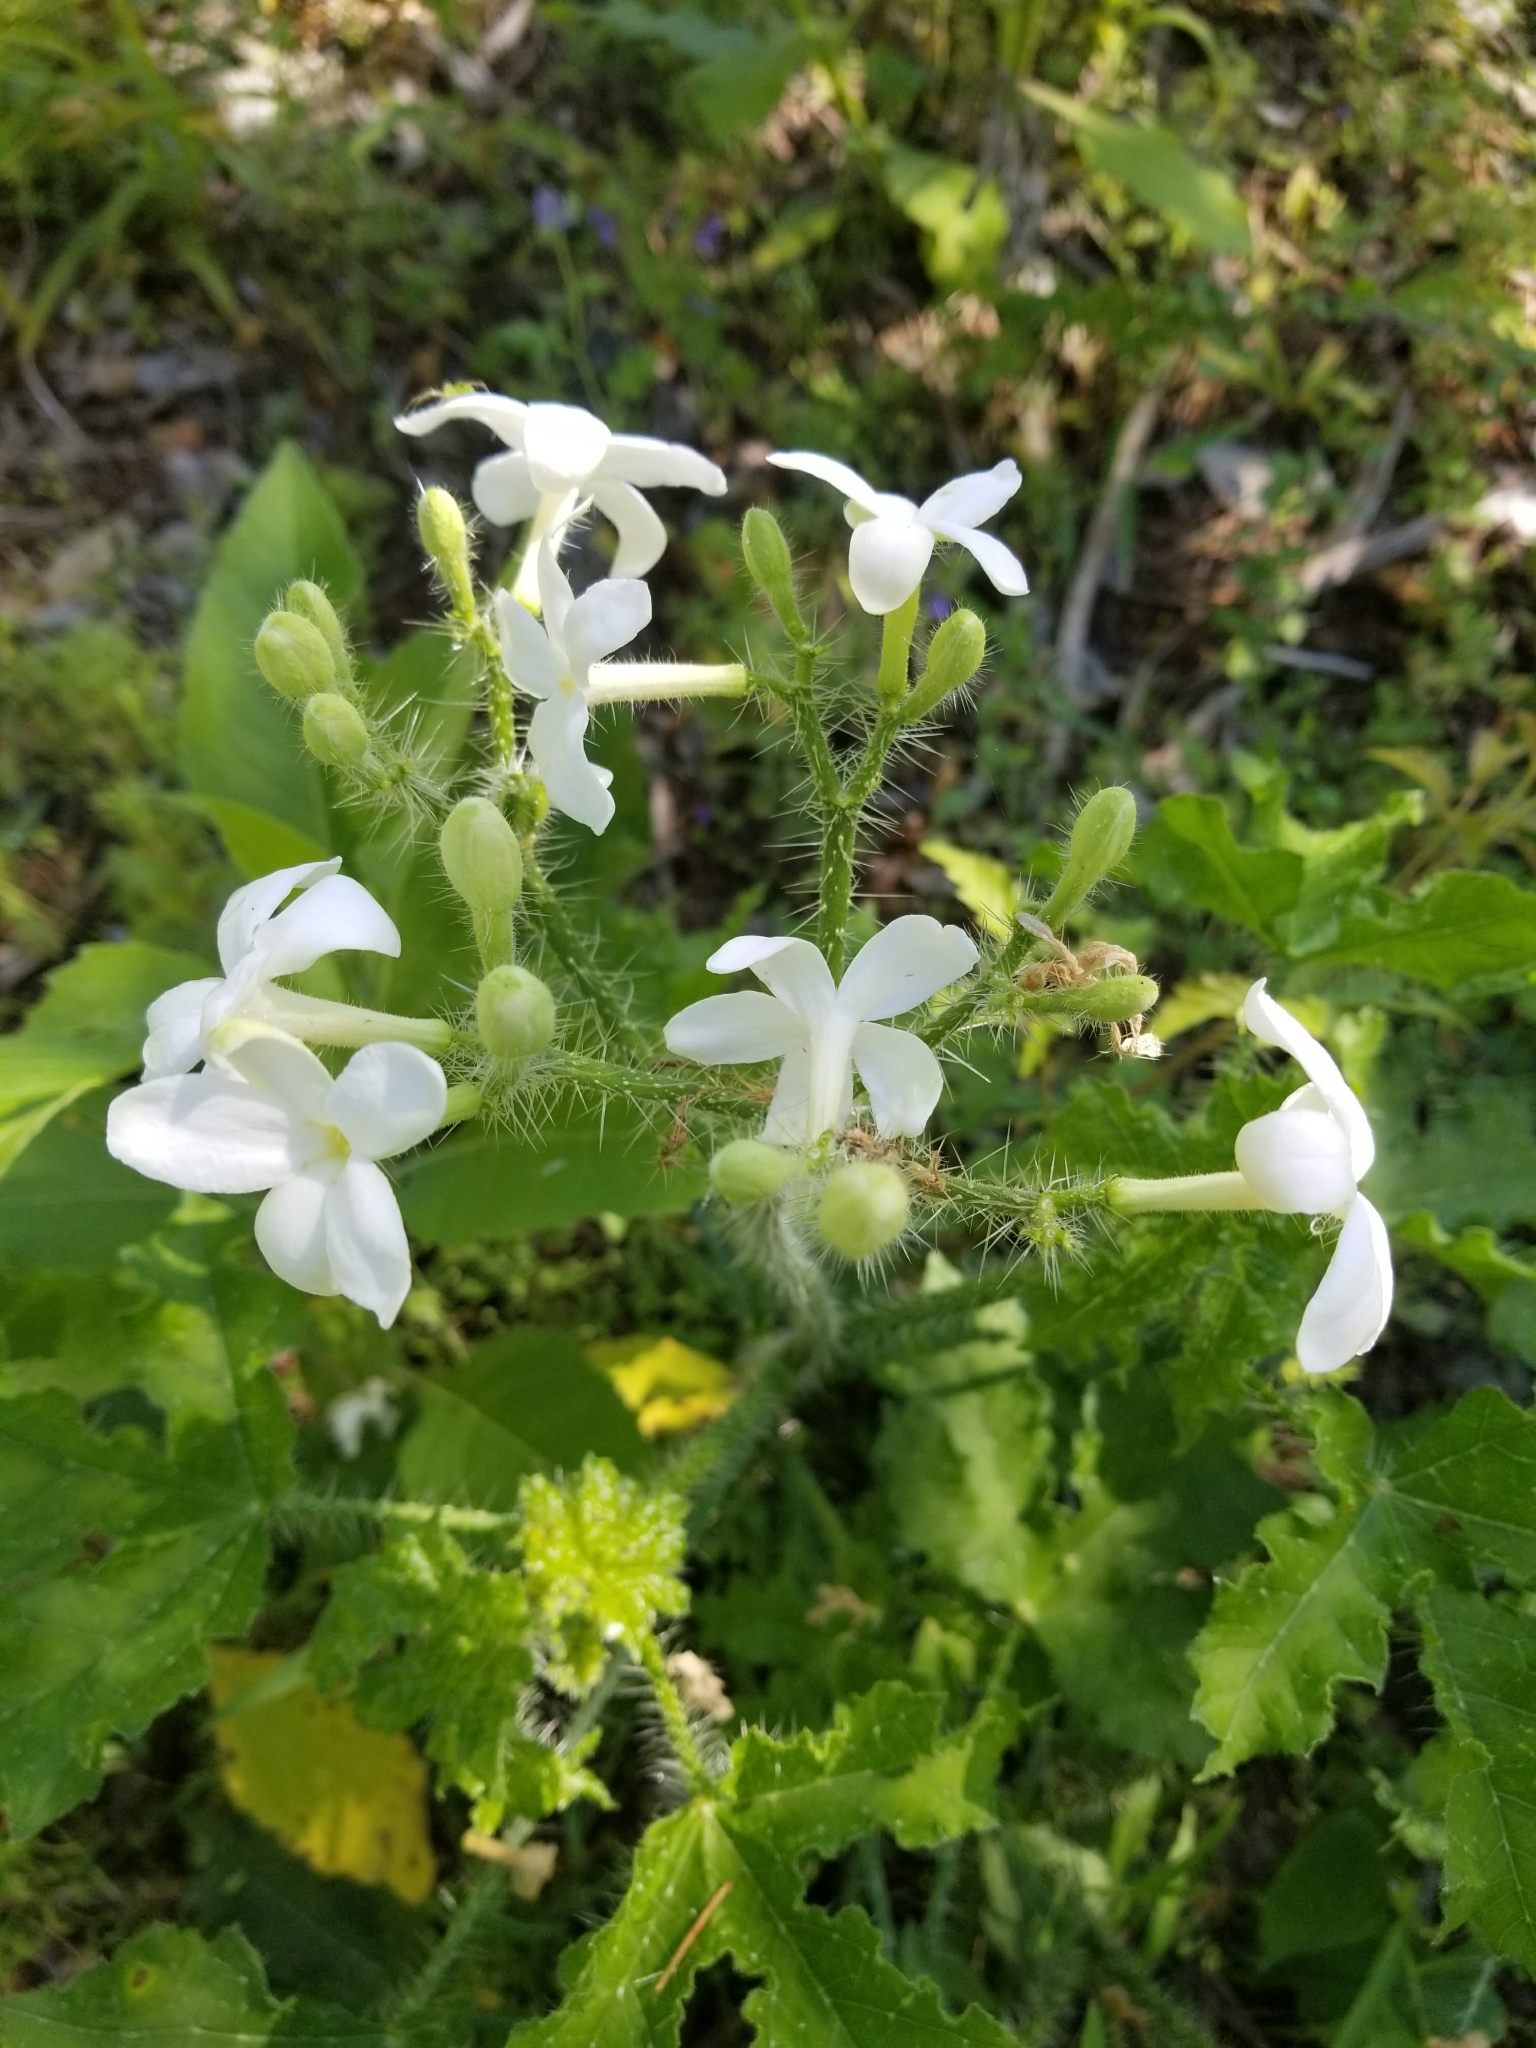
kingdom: Plantae
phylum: Tracheophyta
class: Magnoliopsida
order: Malpighiales
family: Euphorbiaceae
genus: Cnidoscolus
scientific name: Cnidoscolus texanus
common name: Texas bull-nettle
